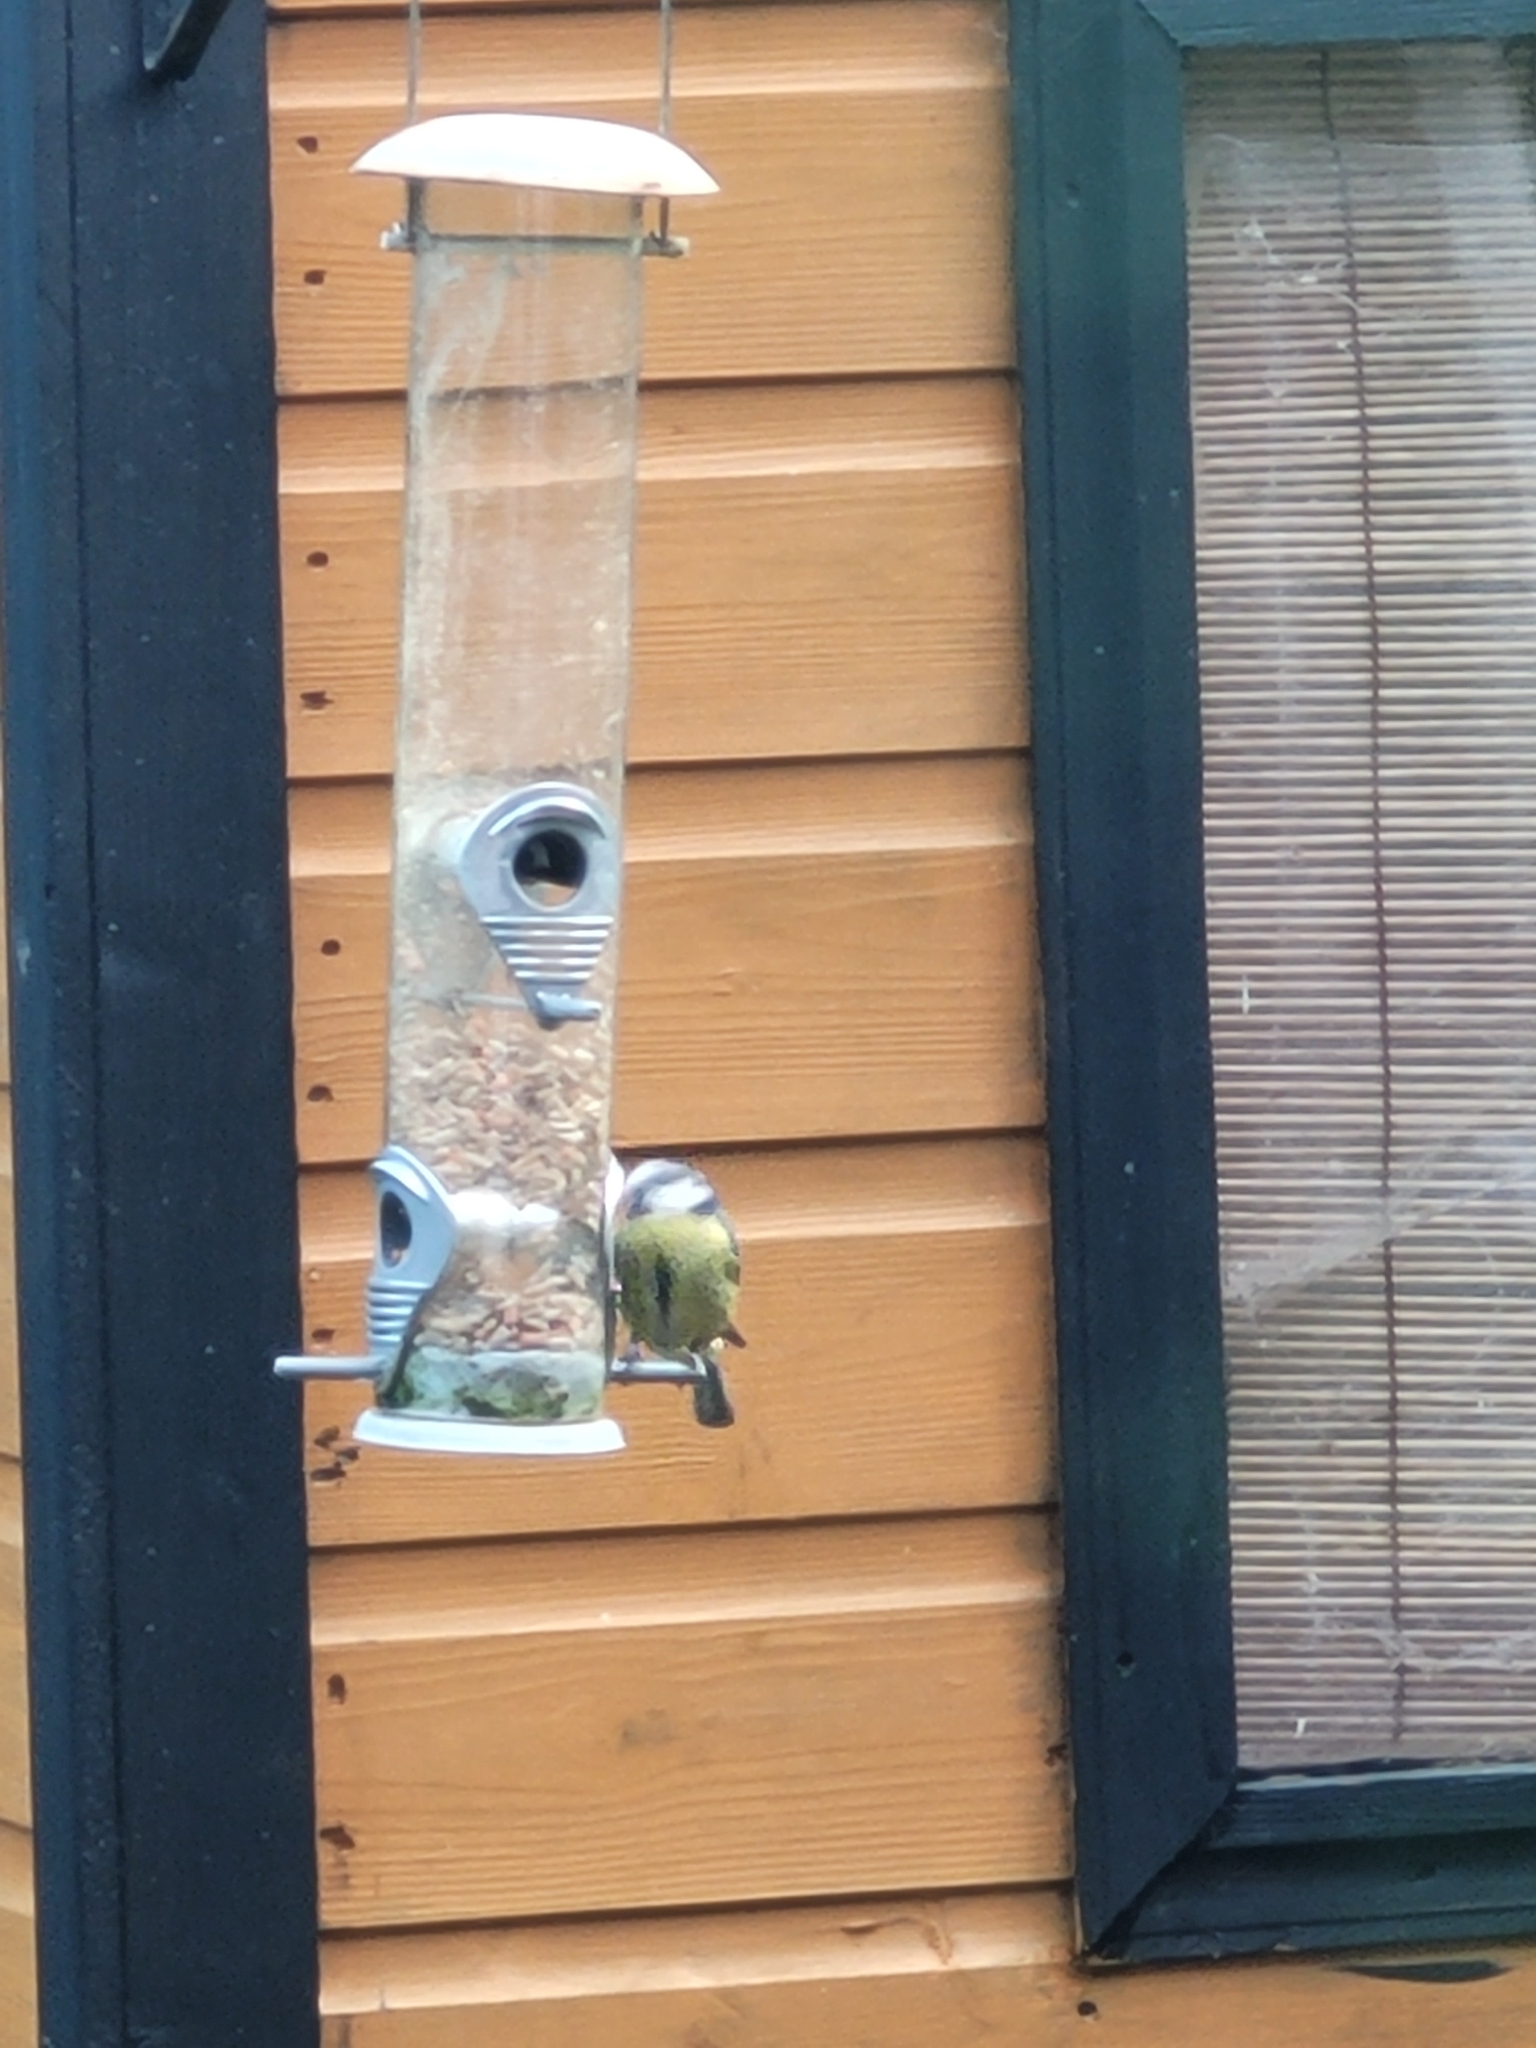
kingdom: Animalia
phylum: Chordata
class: Aves
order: Passeriformes
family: Paridae
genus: Cyanistes
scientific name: Cyanistes caeruleus
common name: Eurasian blue tit
